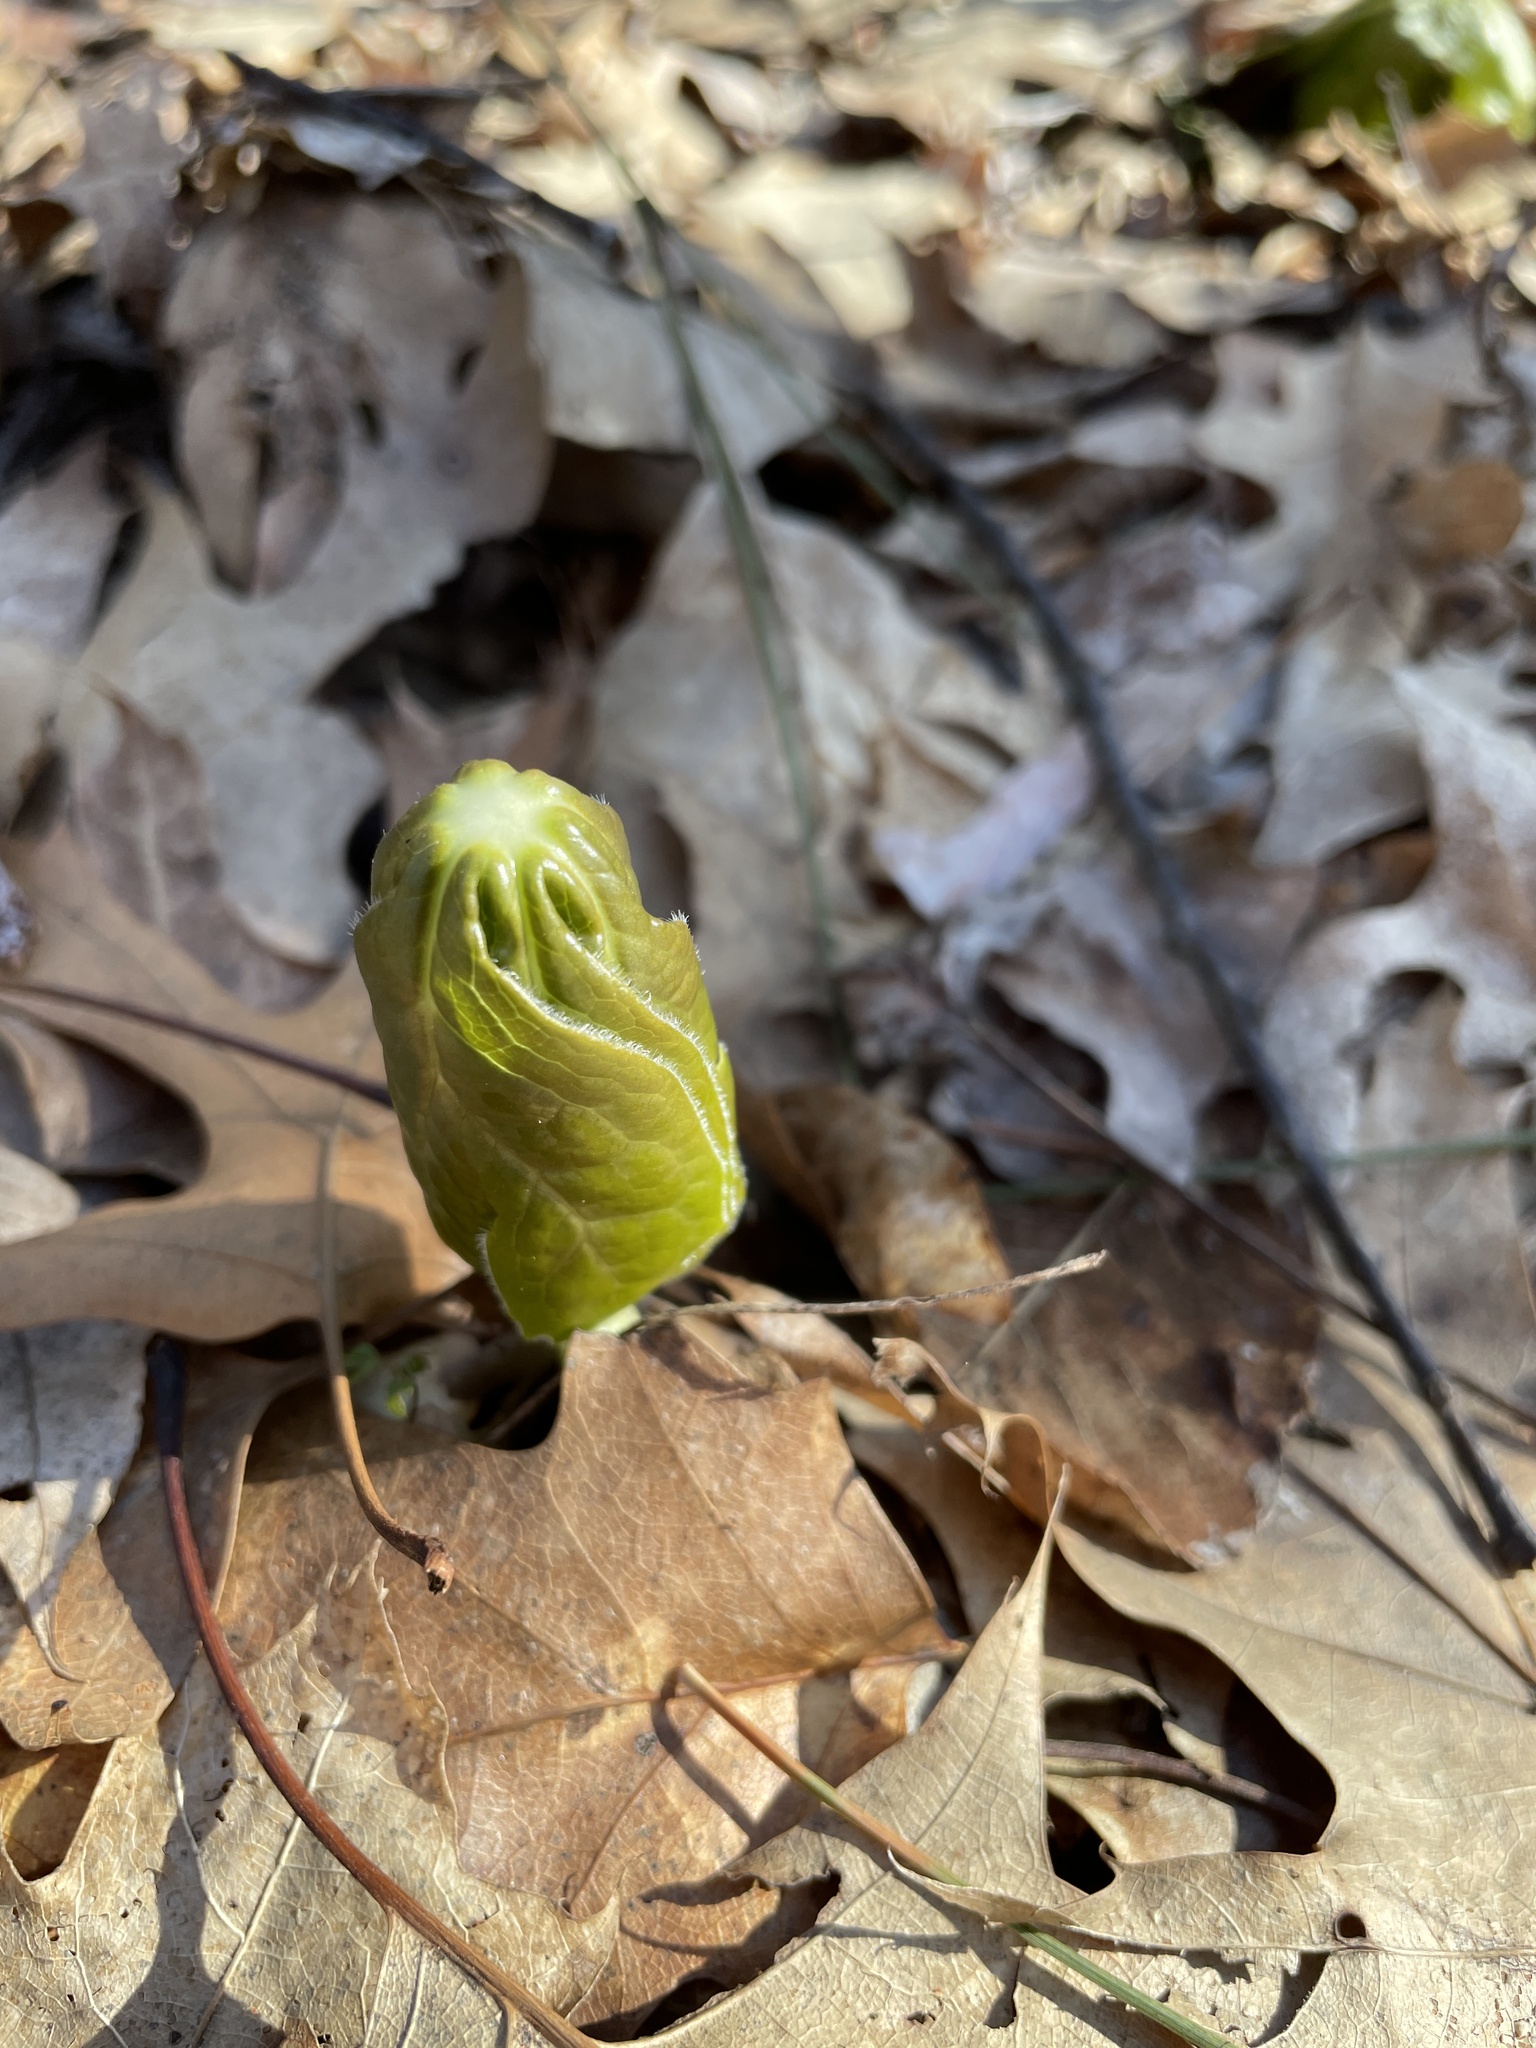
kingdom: Plantae
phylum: Tracheophyta
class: Magnoliopsida
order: Ranunculales
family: Berberidaceae
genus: Podophyllum
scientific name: Podophyllum peltatum
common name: Wild mandrake
